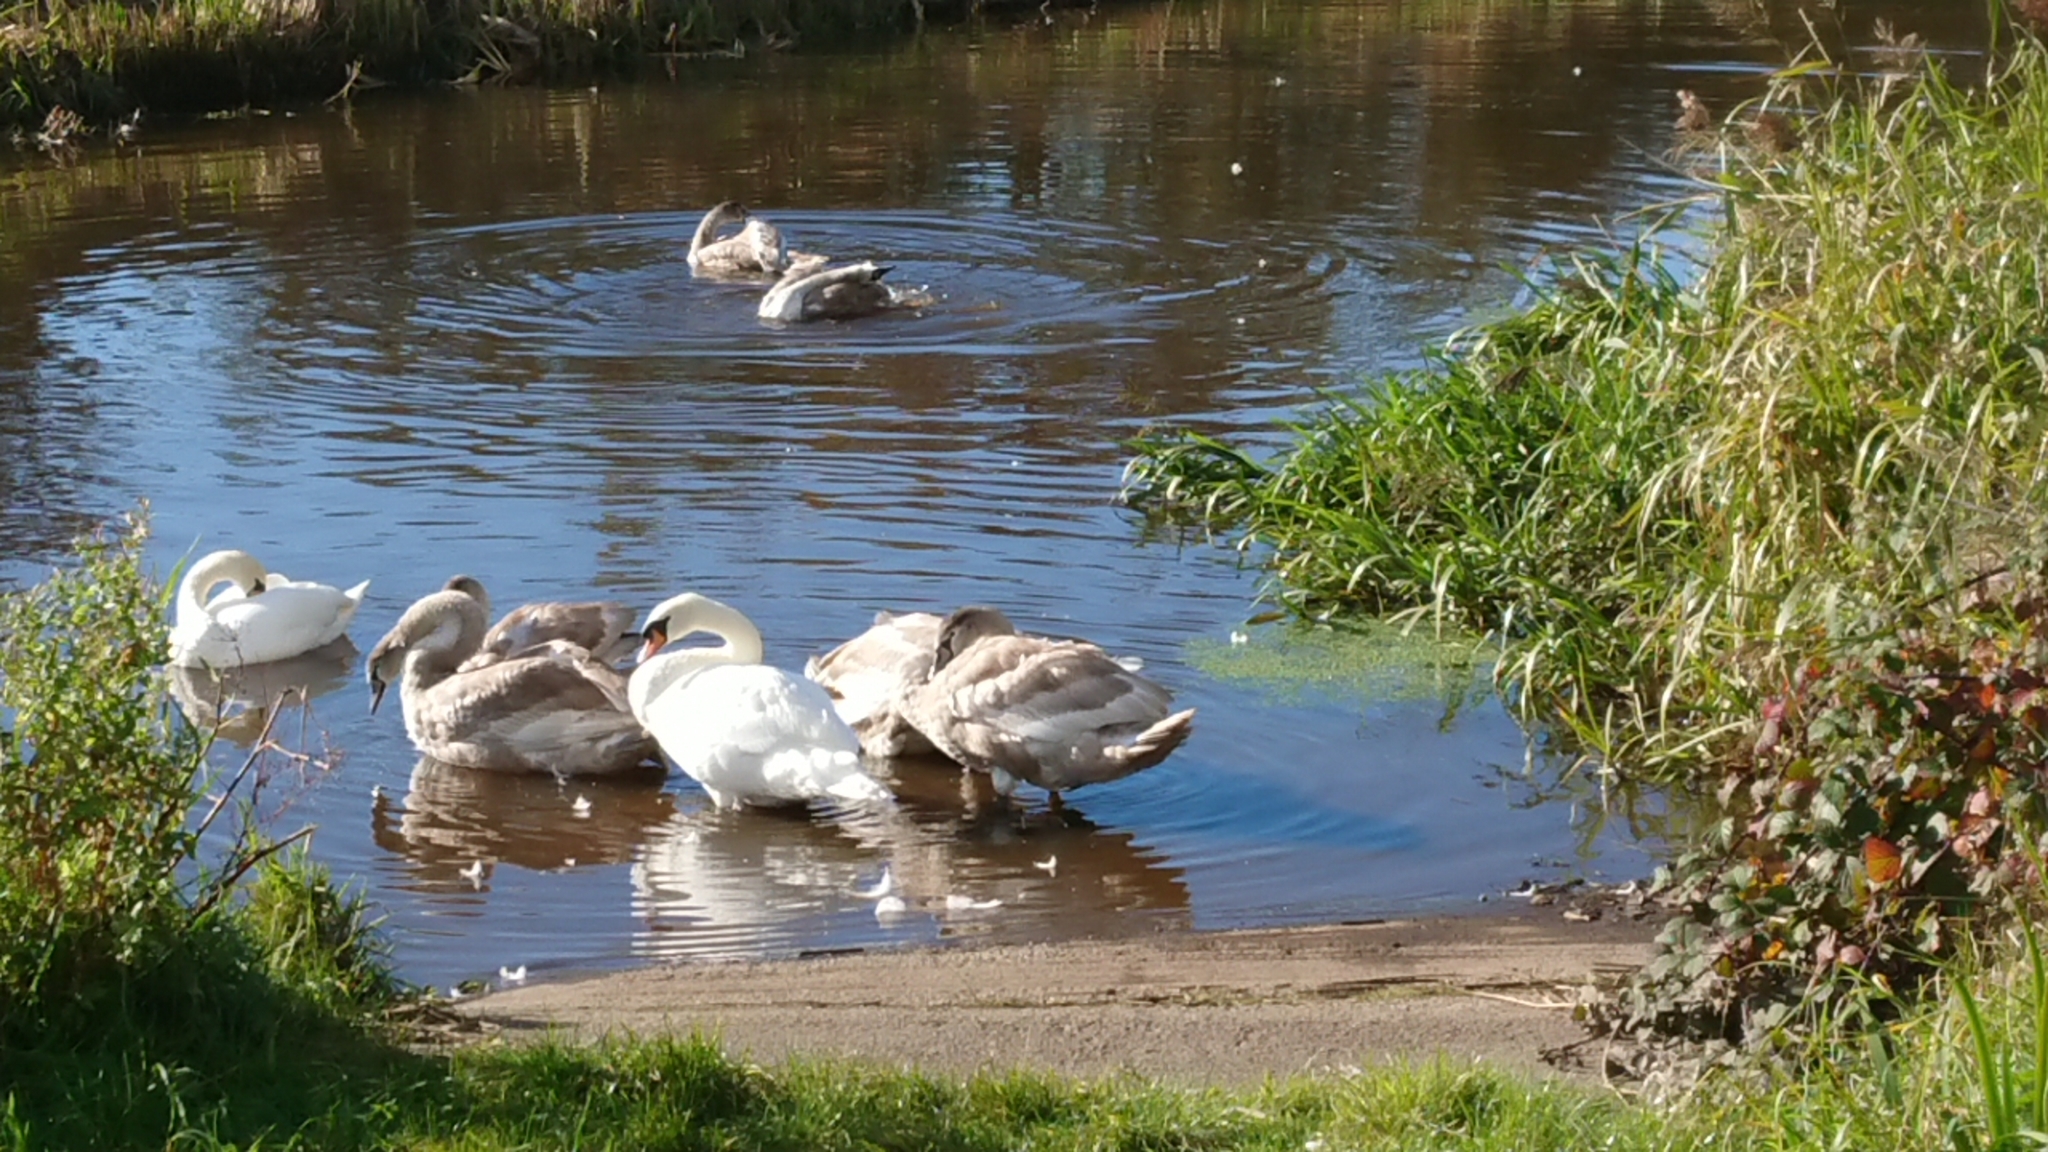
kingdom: Animalia
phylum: Chordata
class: Aves
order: Anseriformes
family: Anatidae
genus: Cygnus
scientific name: Cygnus olor
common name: Mute swan
